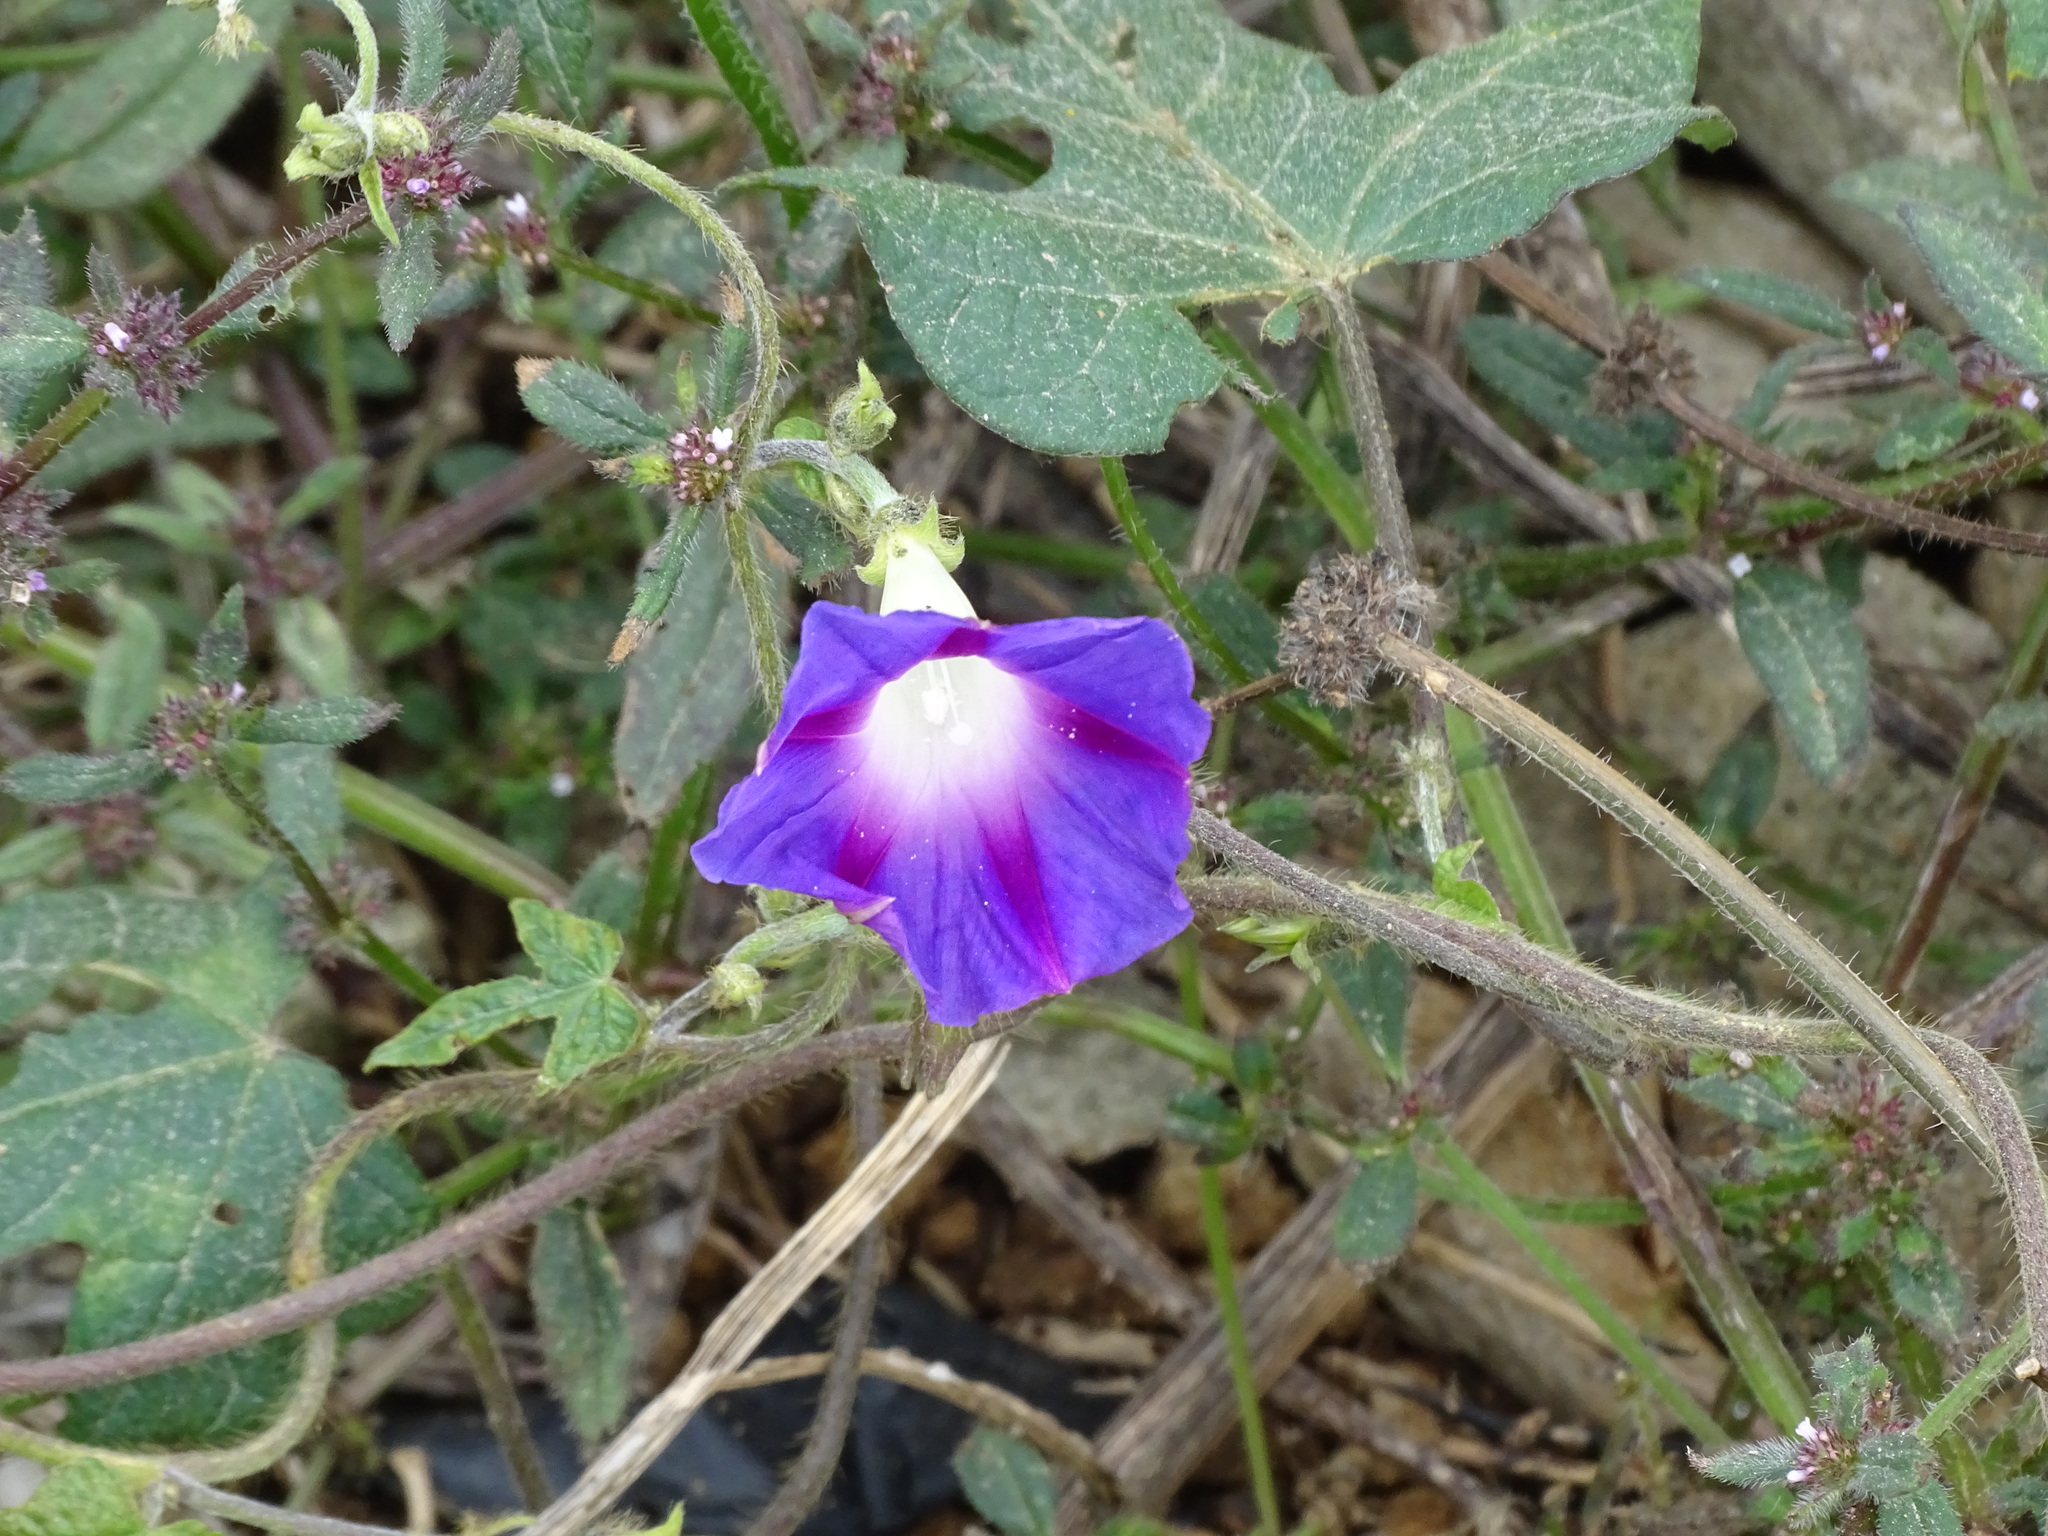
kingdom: Plantae
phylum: Tracheophyta
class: Magnoliopsida
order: Solanales
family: Convolvulaceae
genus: Ipomoea
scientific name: Ipomoea purpurea
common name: Common morning-glory
